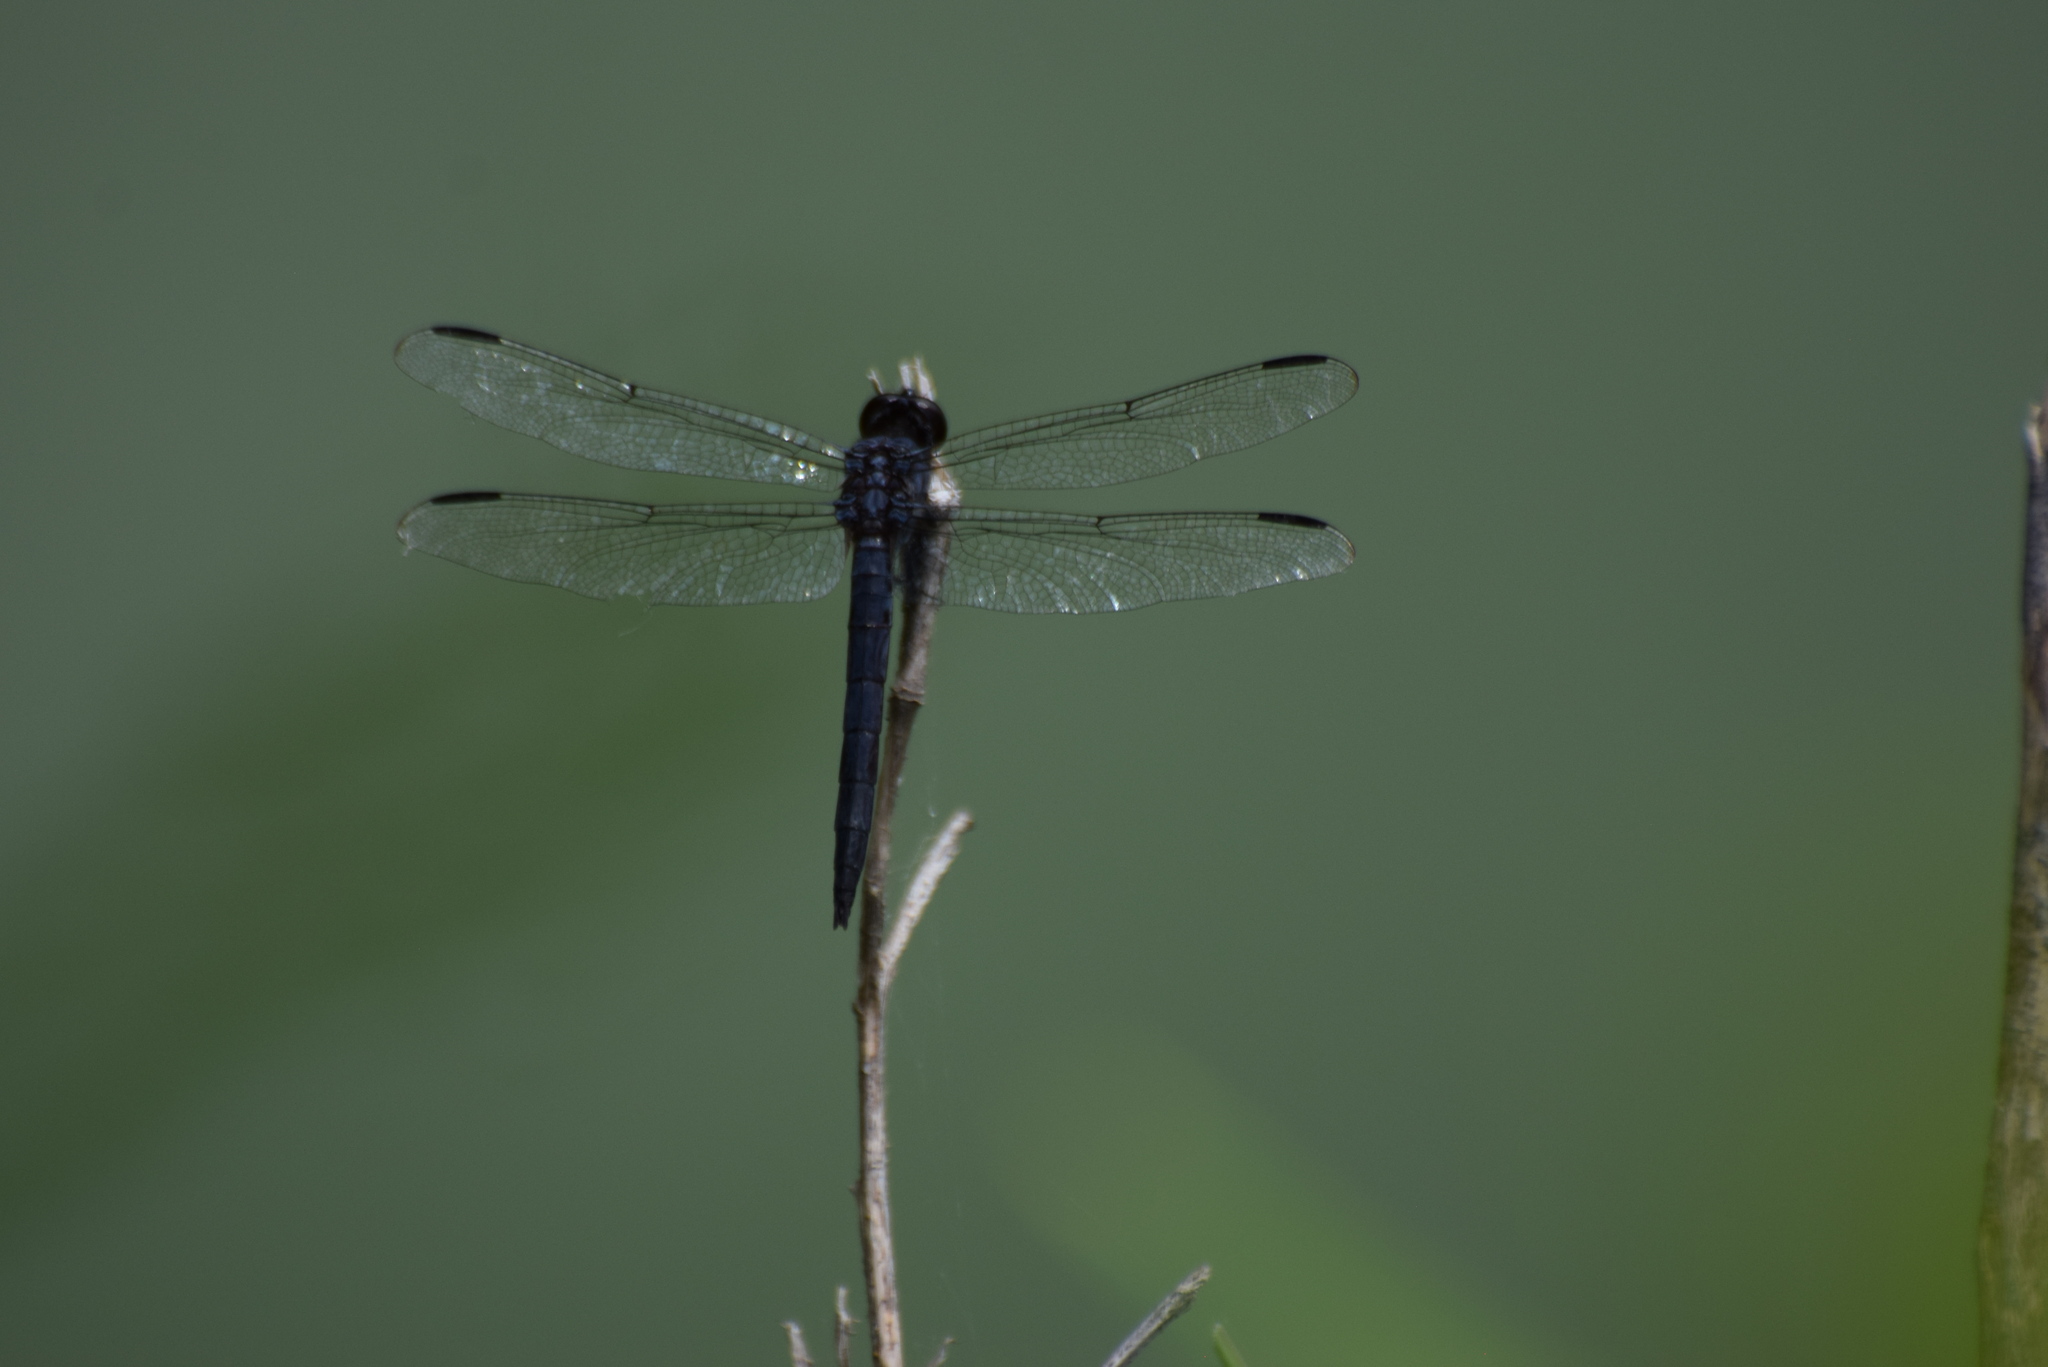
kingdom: Animalia
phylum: Arthropoda
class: Insecta
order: Odonata
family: Libellulidae
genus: Libellula
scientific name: Libellula incesta
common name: Slaty skimmer
